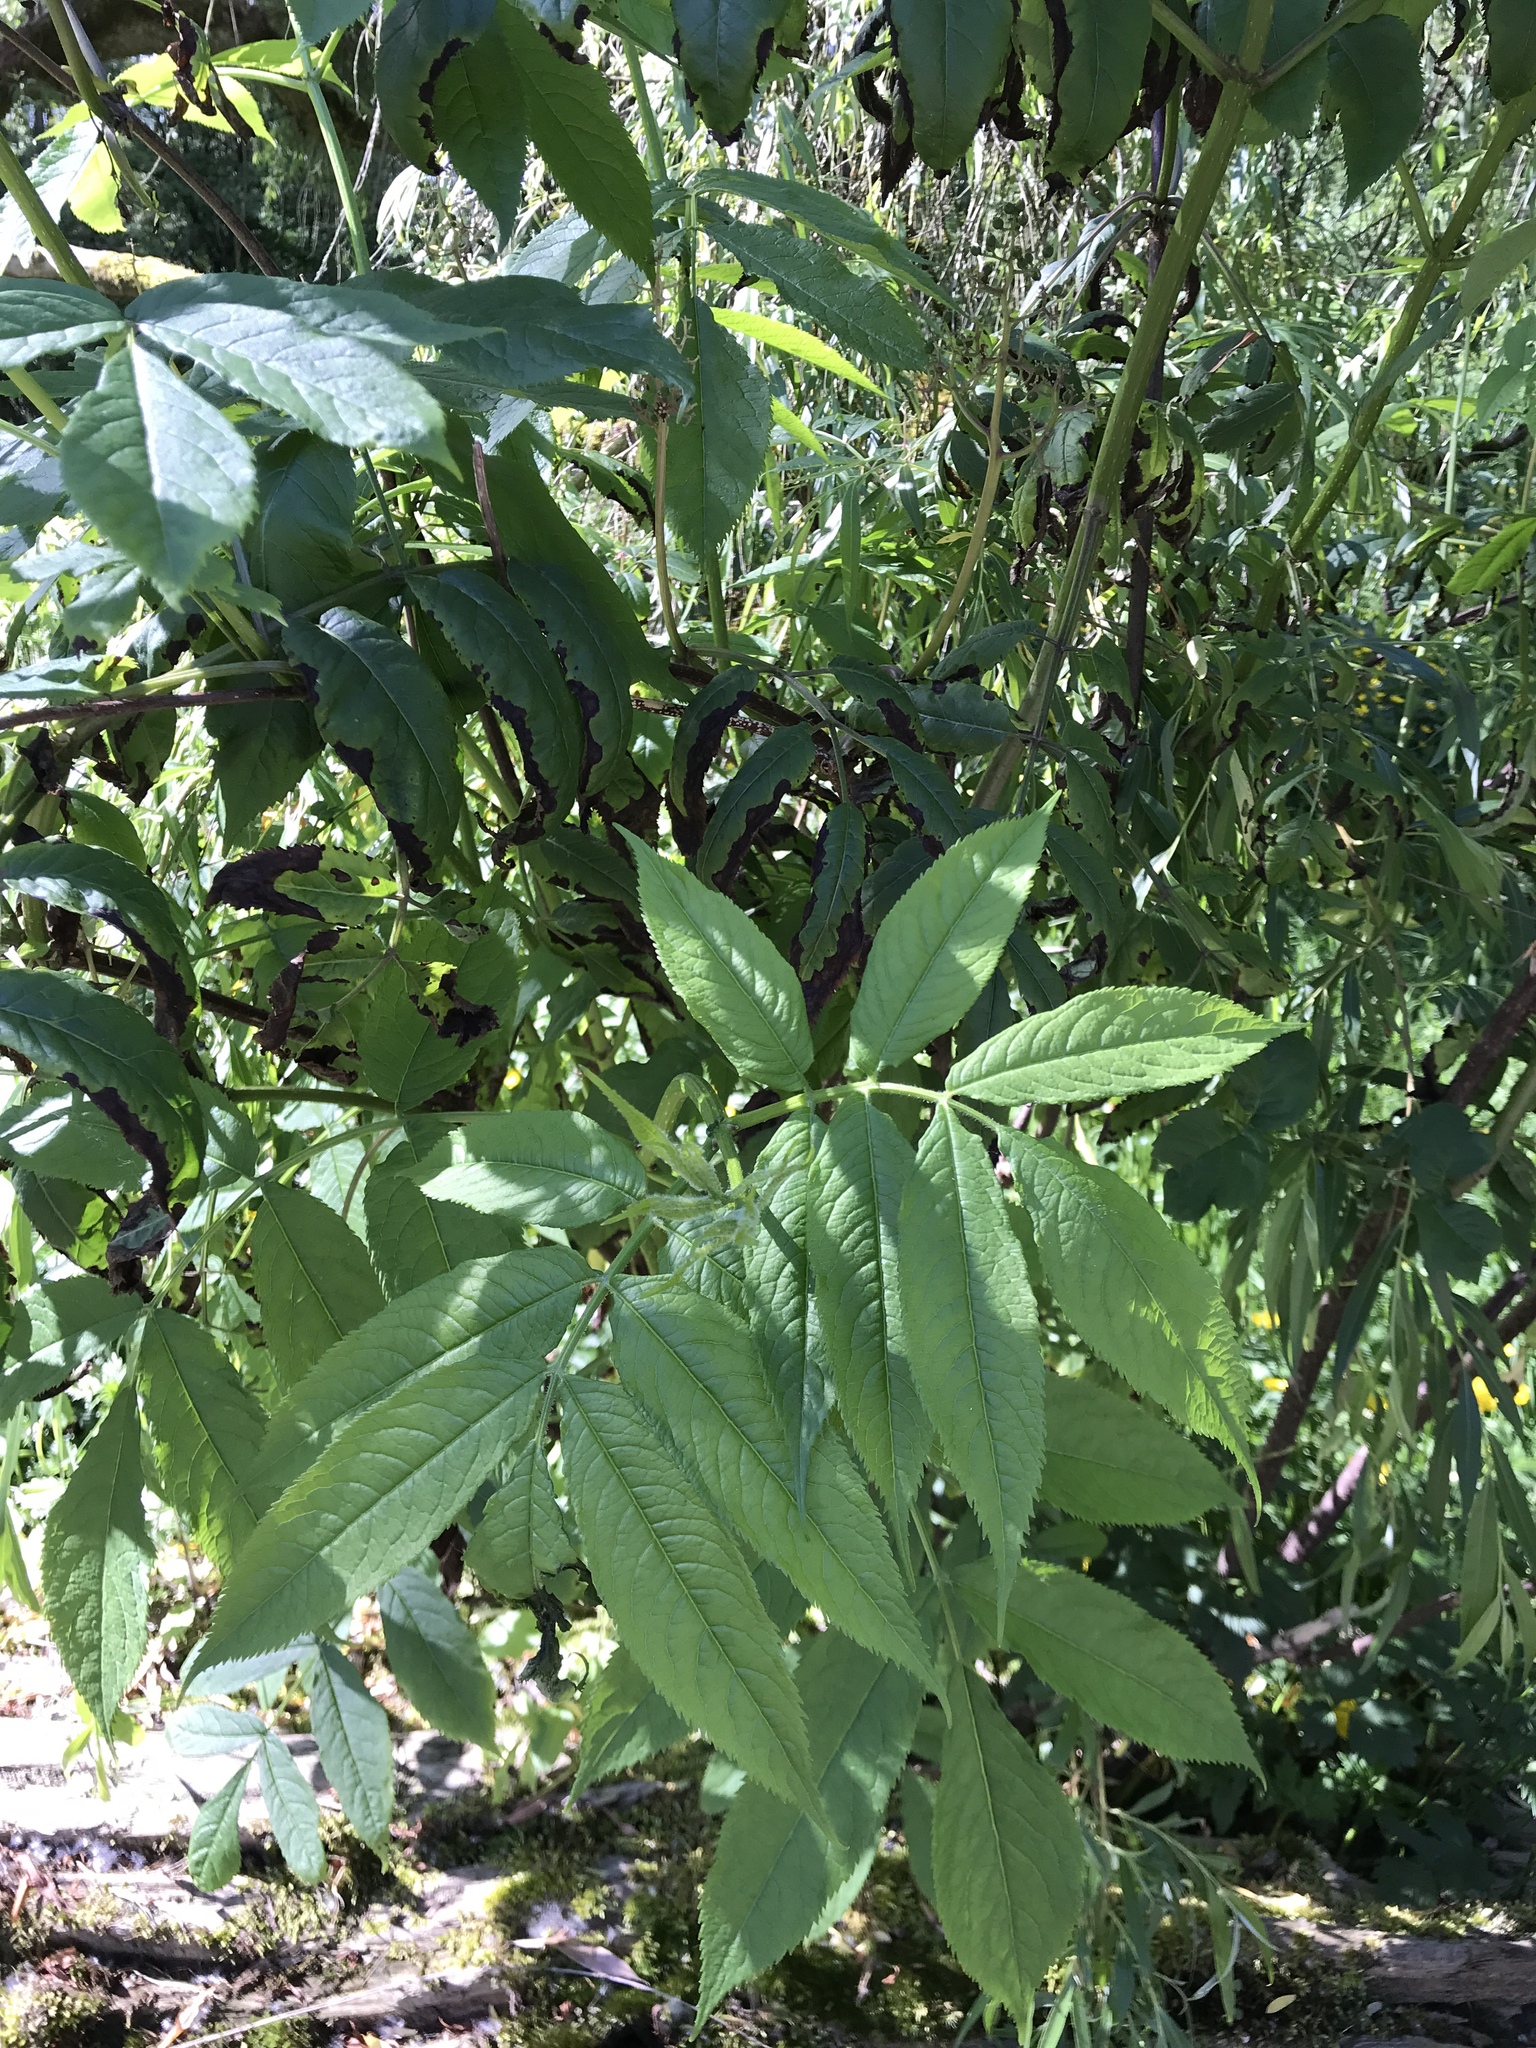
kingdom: Plantae
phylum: Tracheophyta
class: Magnoliopsida
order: Dipsacales
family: Viburnaceae
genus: Sambucus
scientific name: Sambucus racemosa
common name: Red-berried elder
